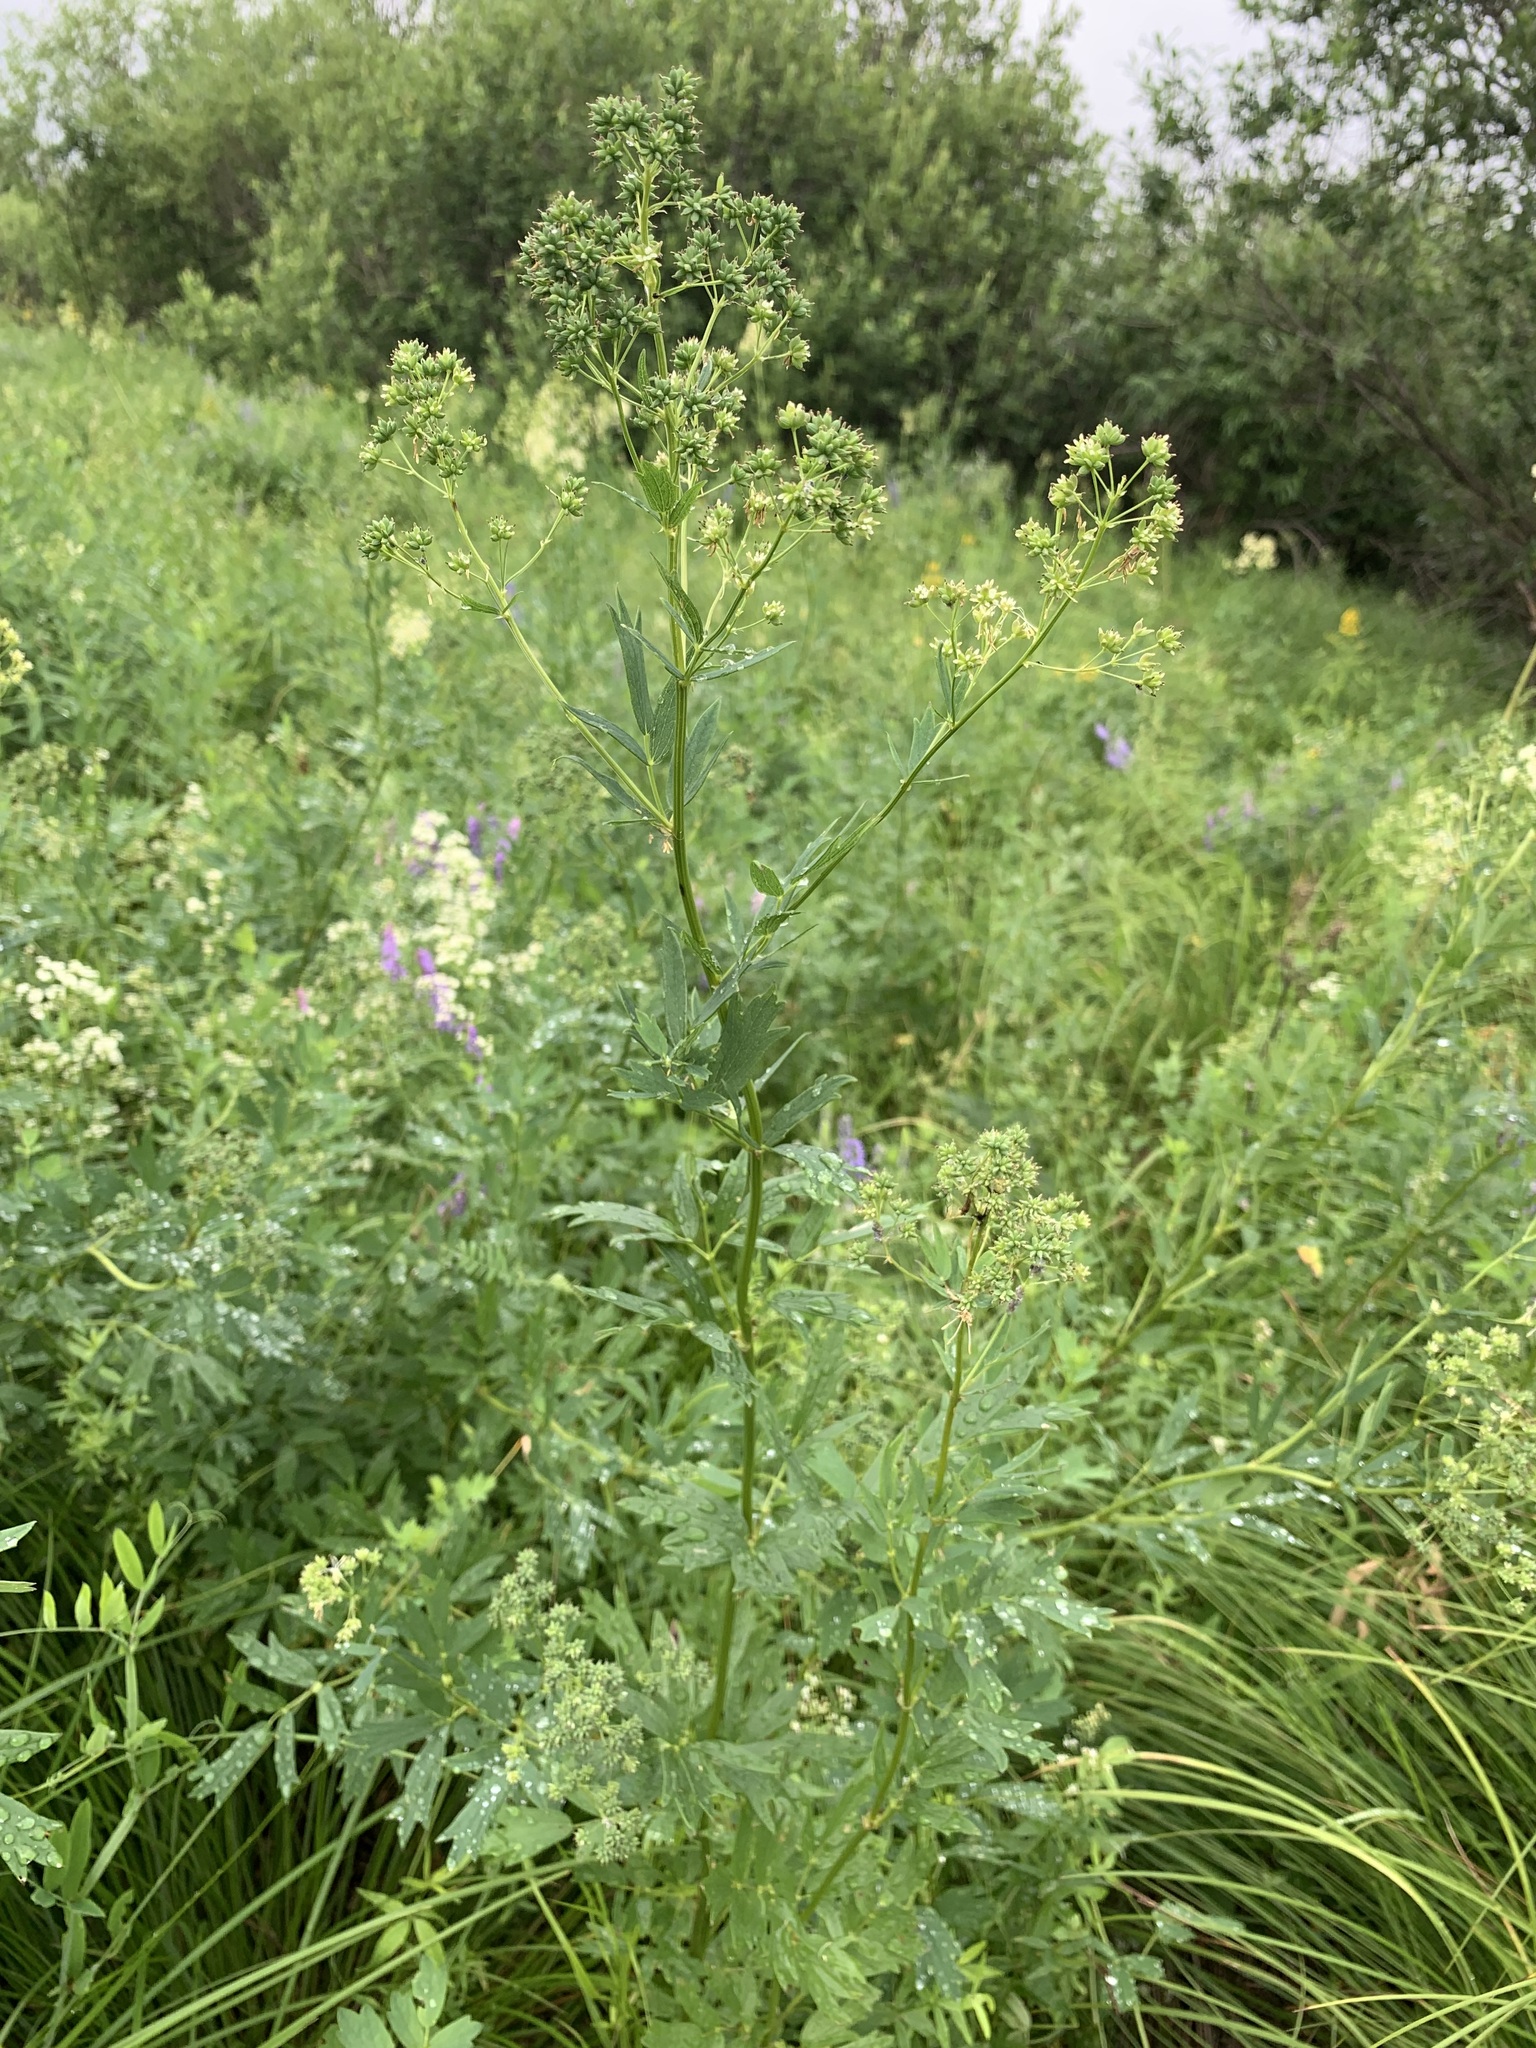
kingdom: Plantae
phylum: Tracheophyta
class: Magnoliopsida
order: Ranunculales
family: Ranunculaceae
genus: Thalictrum
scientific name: Thalictrum flavum
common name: Common meadow-rue
